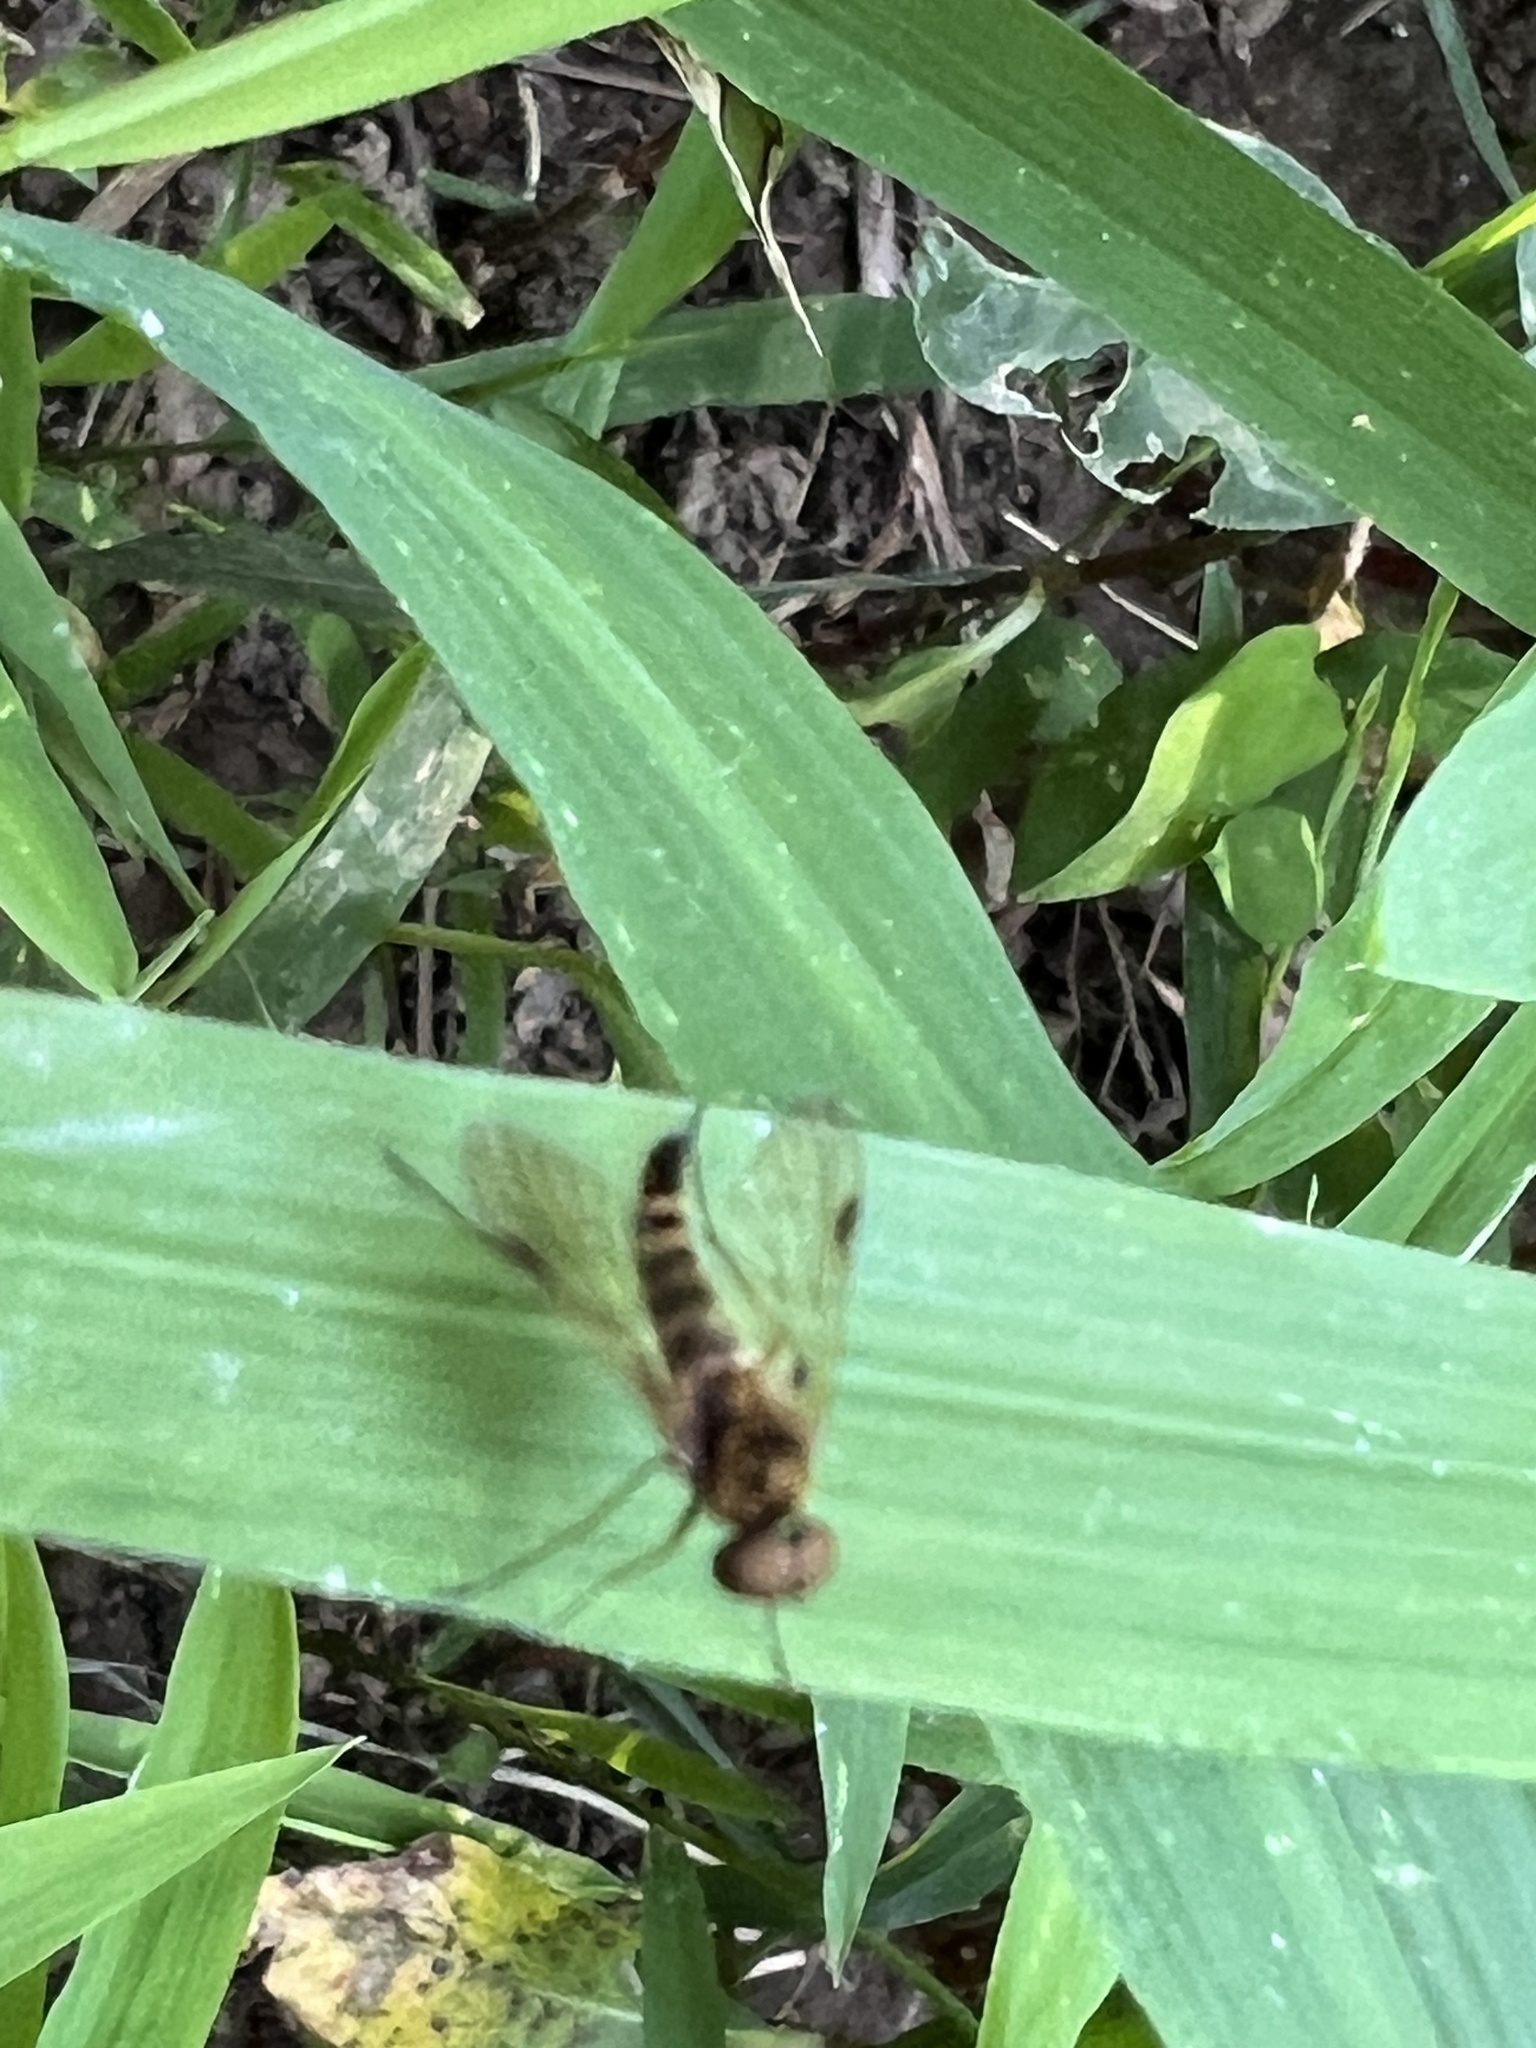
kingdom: Animalia
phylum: Arthropoda
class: Insecta
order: Diptera
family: Rhagionidae
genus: Chrysopilus
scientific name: Chrysopilus fasciatus
